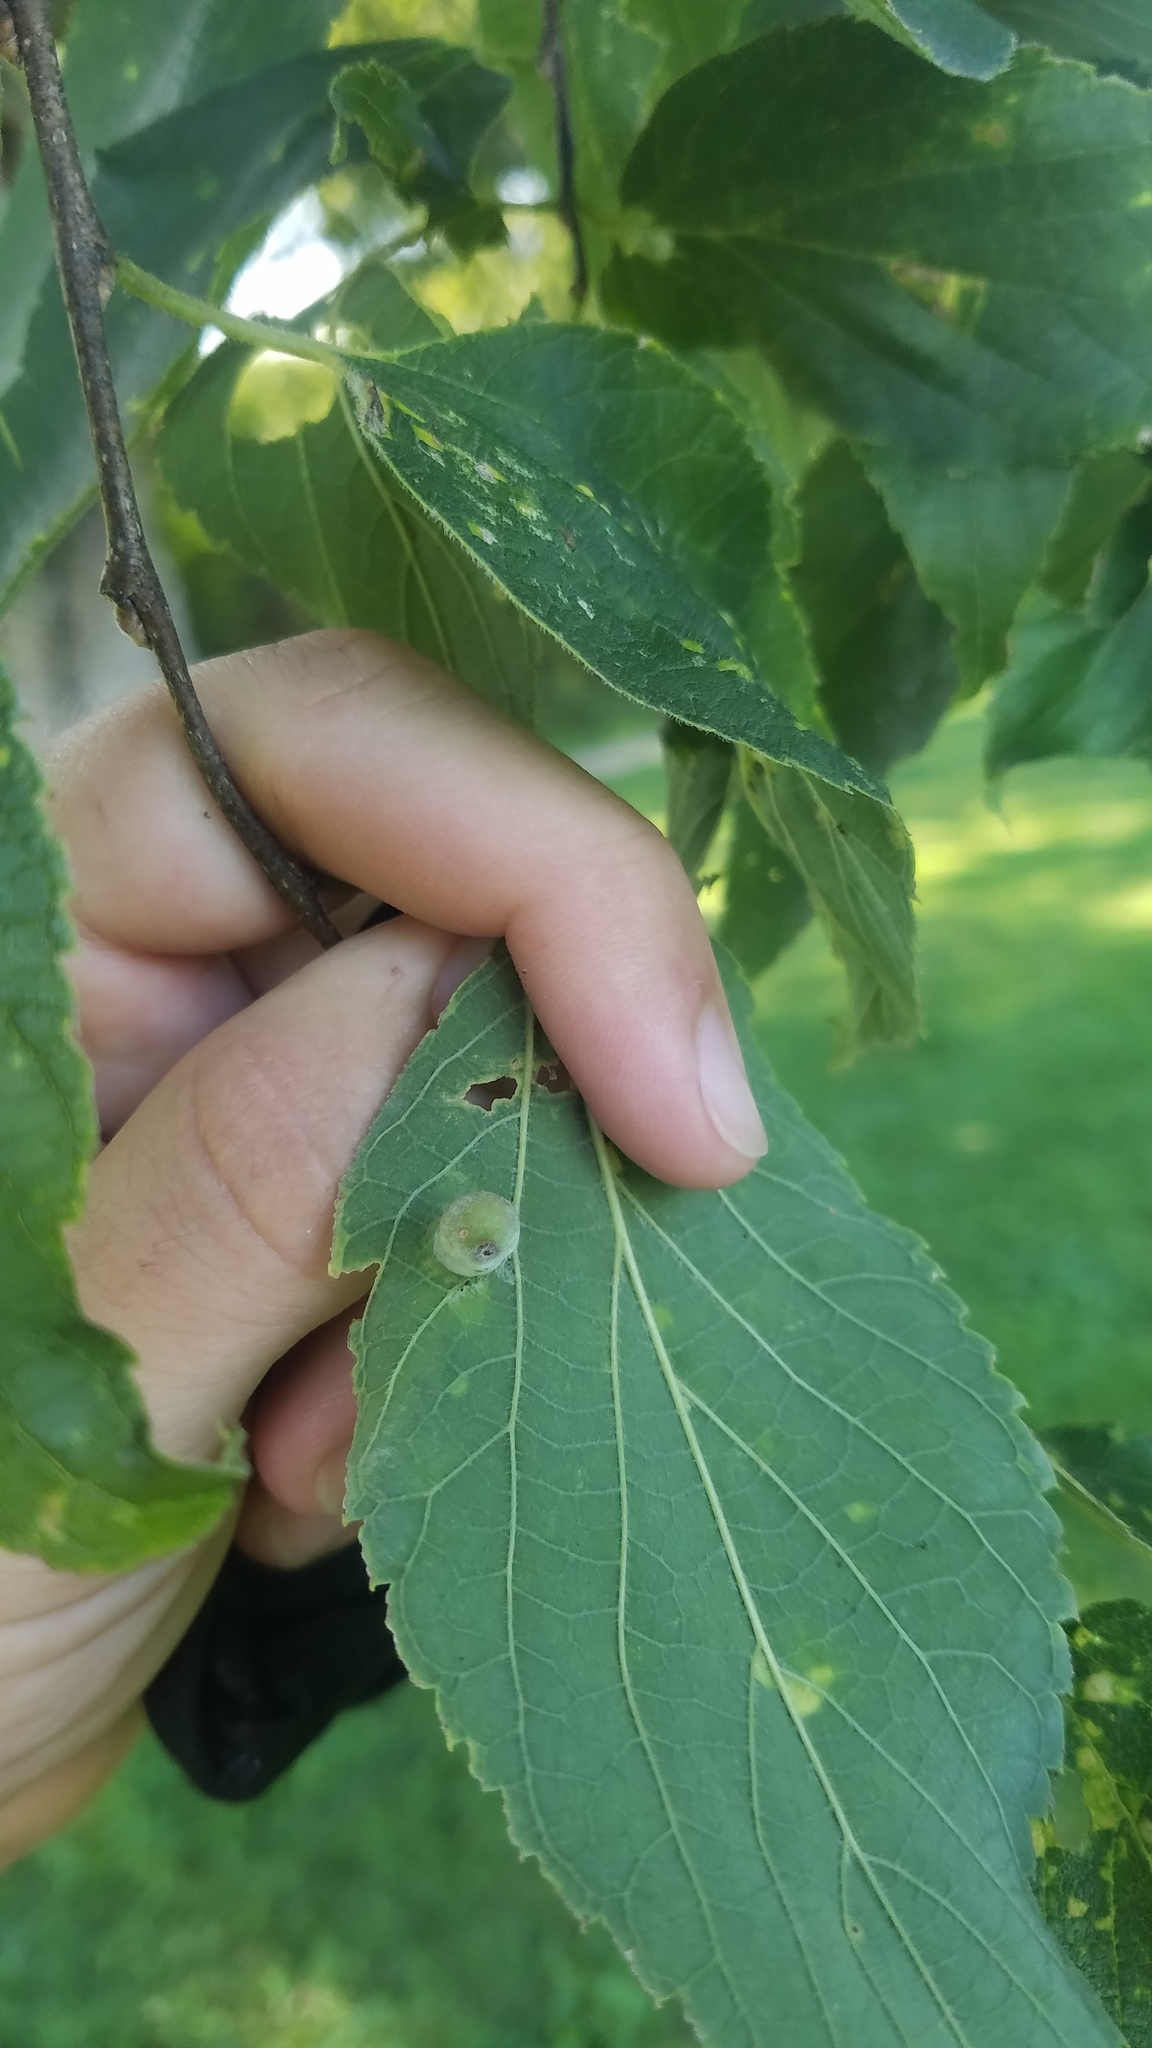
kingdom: Animalia
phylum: Arthropoda
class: Insecta
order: Hemiptera
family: Aphalaridae
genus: Pachypsylla
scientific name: Pachypsylla celtidismamma
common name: Hackberry nipplegall psyllid
